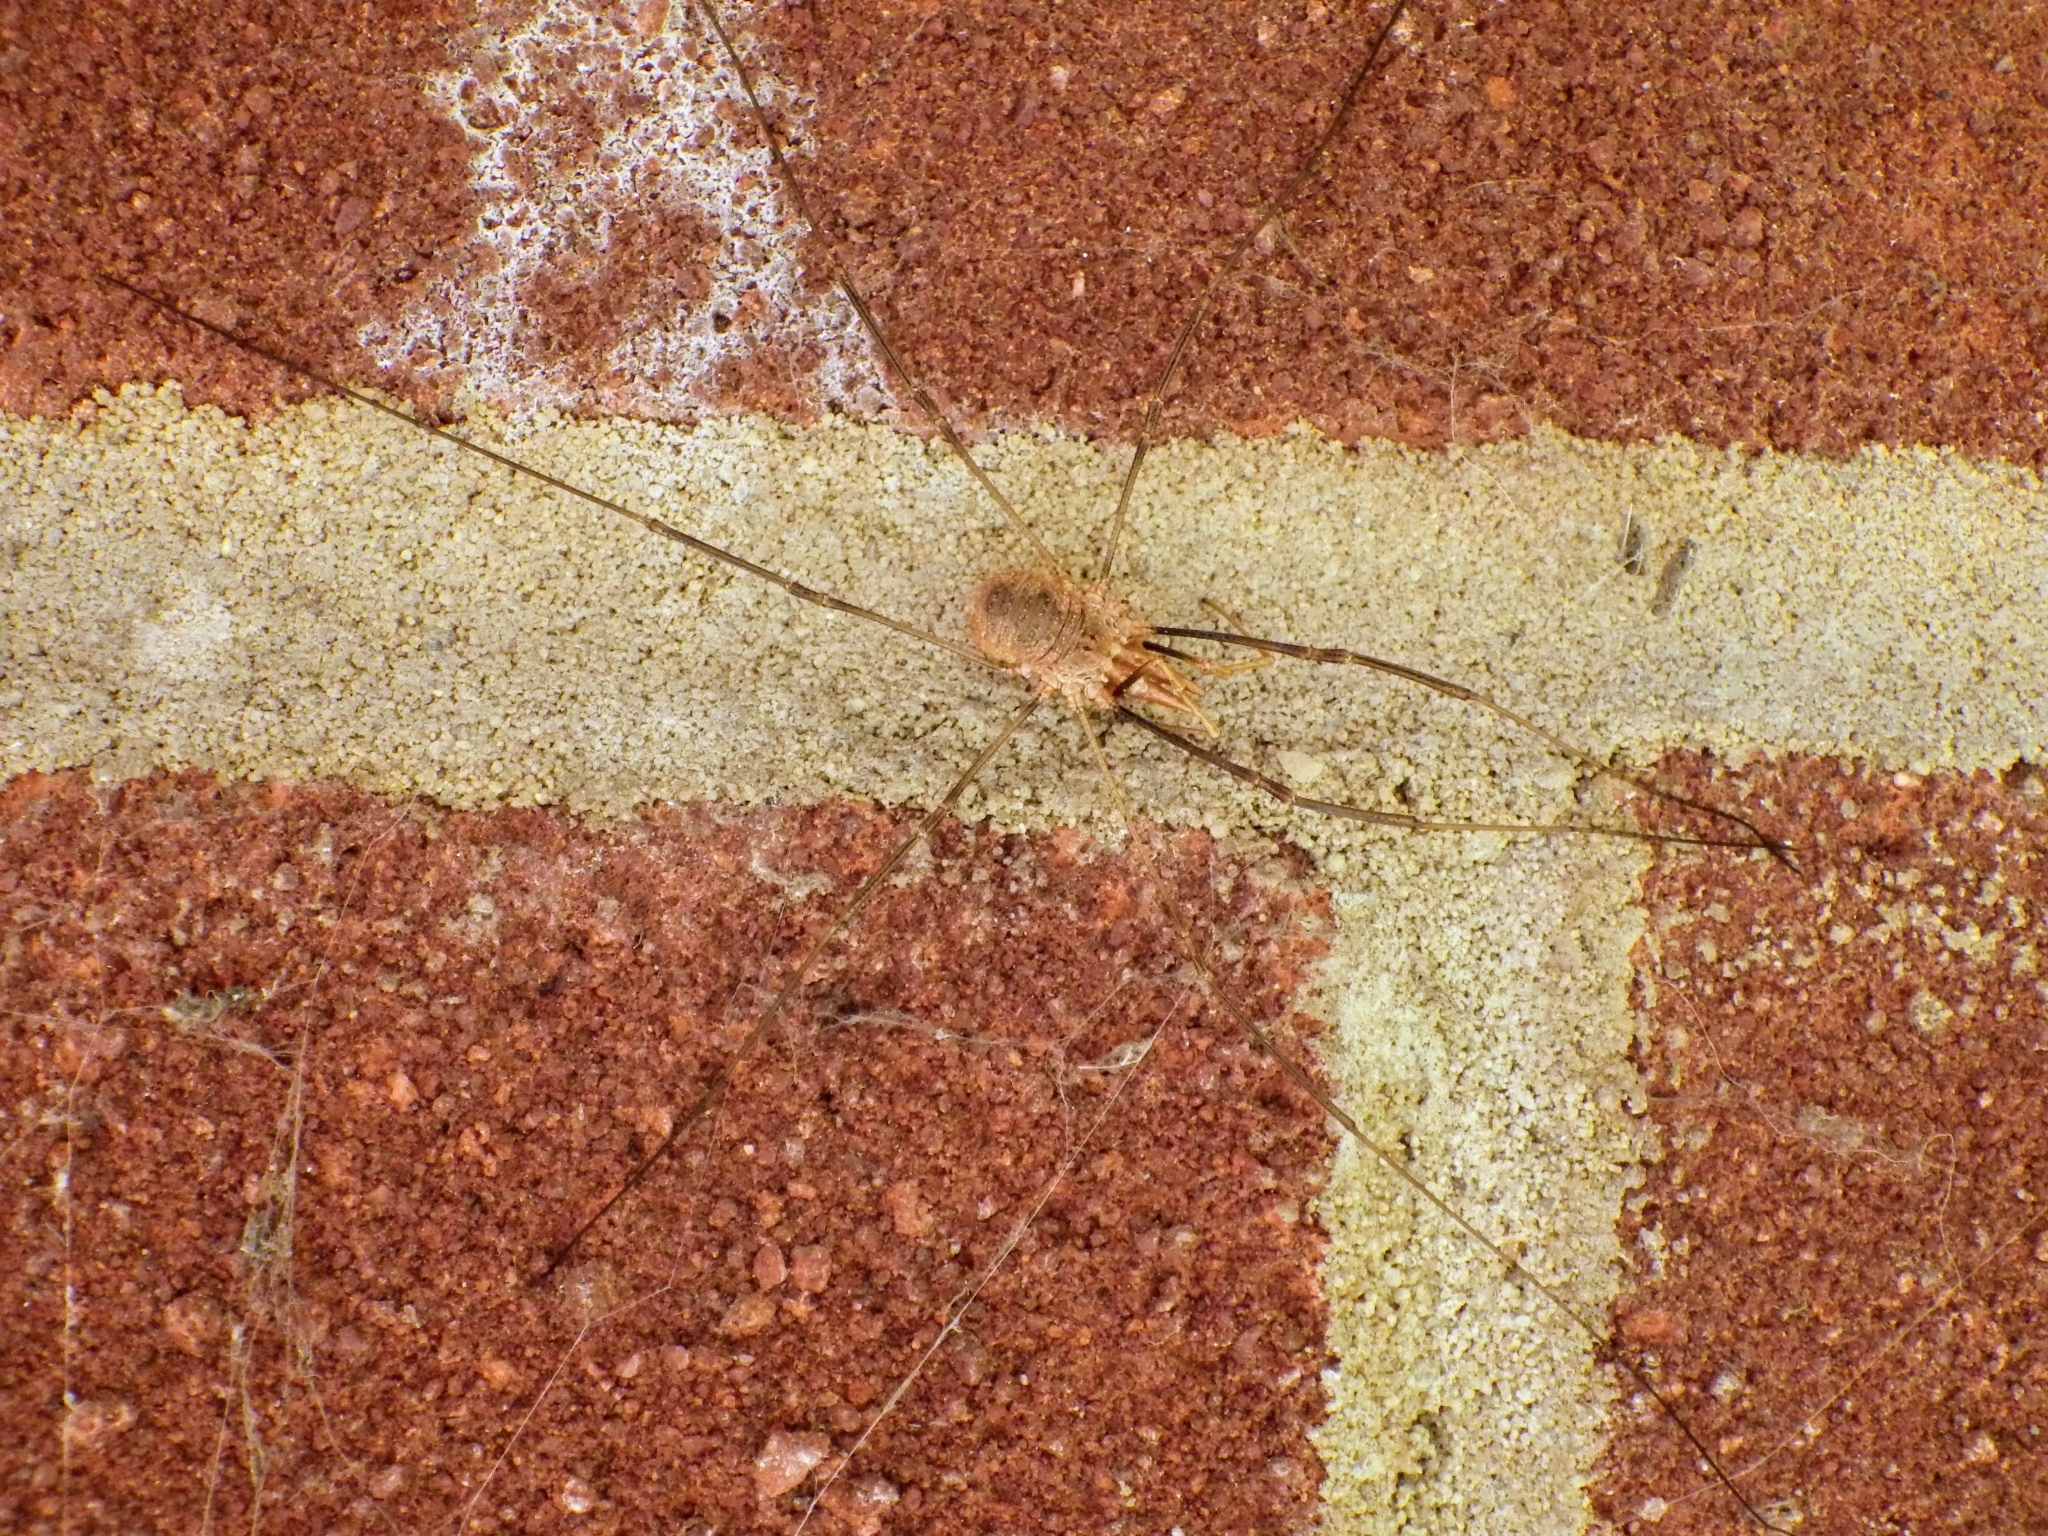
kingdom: Animalia
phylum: Arthropoda
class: Arachnida
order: Opiliones
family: Phalangiidae
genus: Phalangium
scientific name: Phalangium opilio
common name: Daddy longleg
